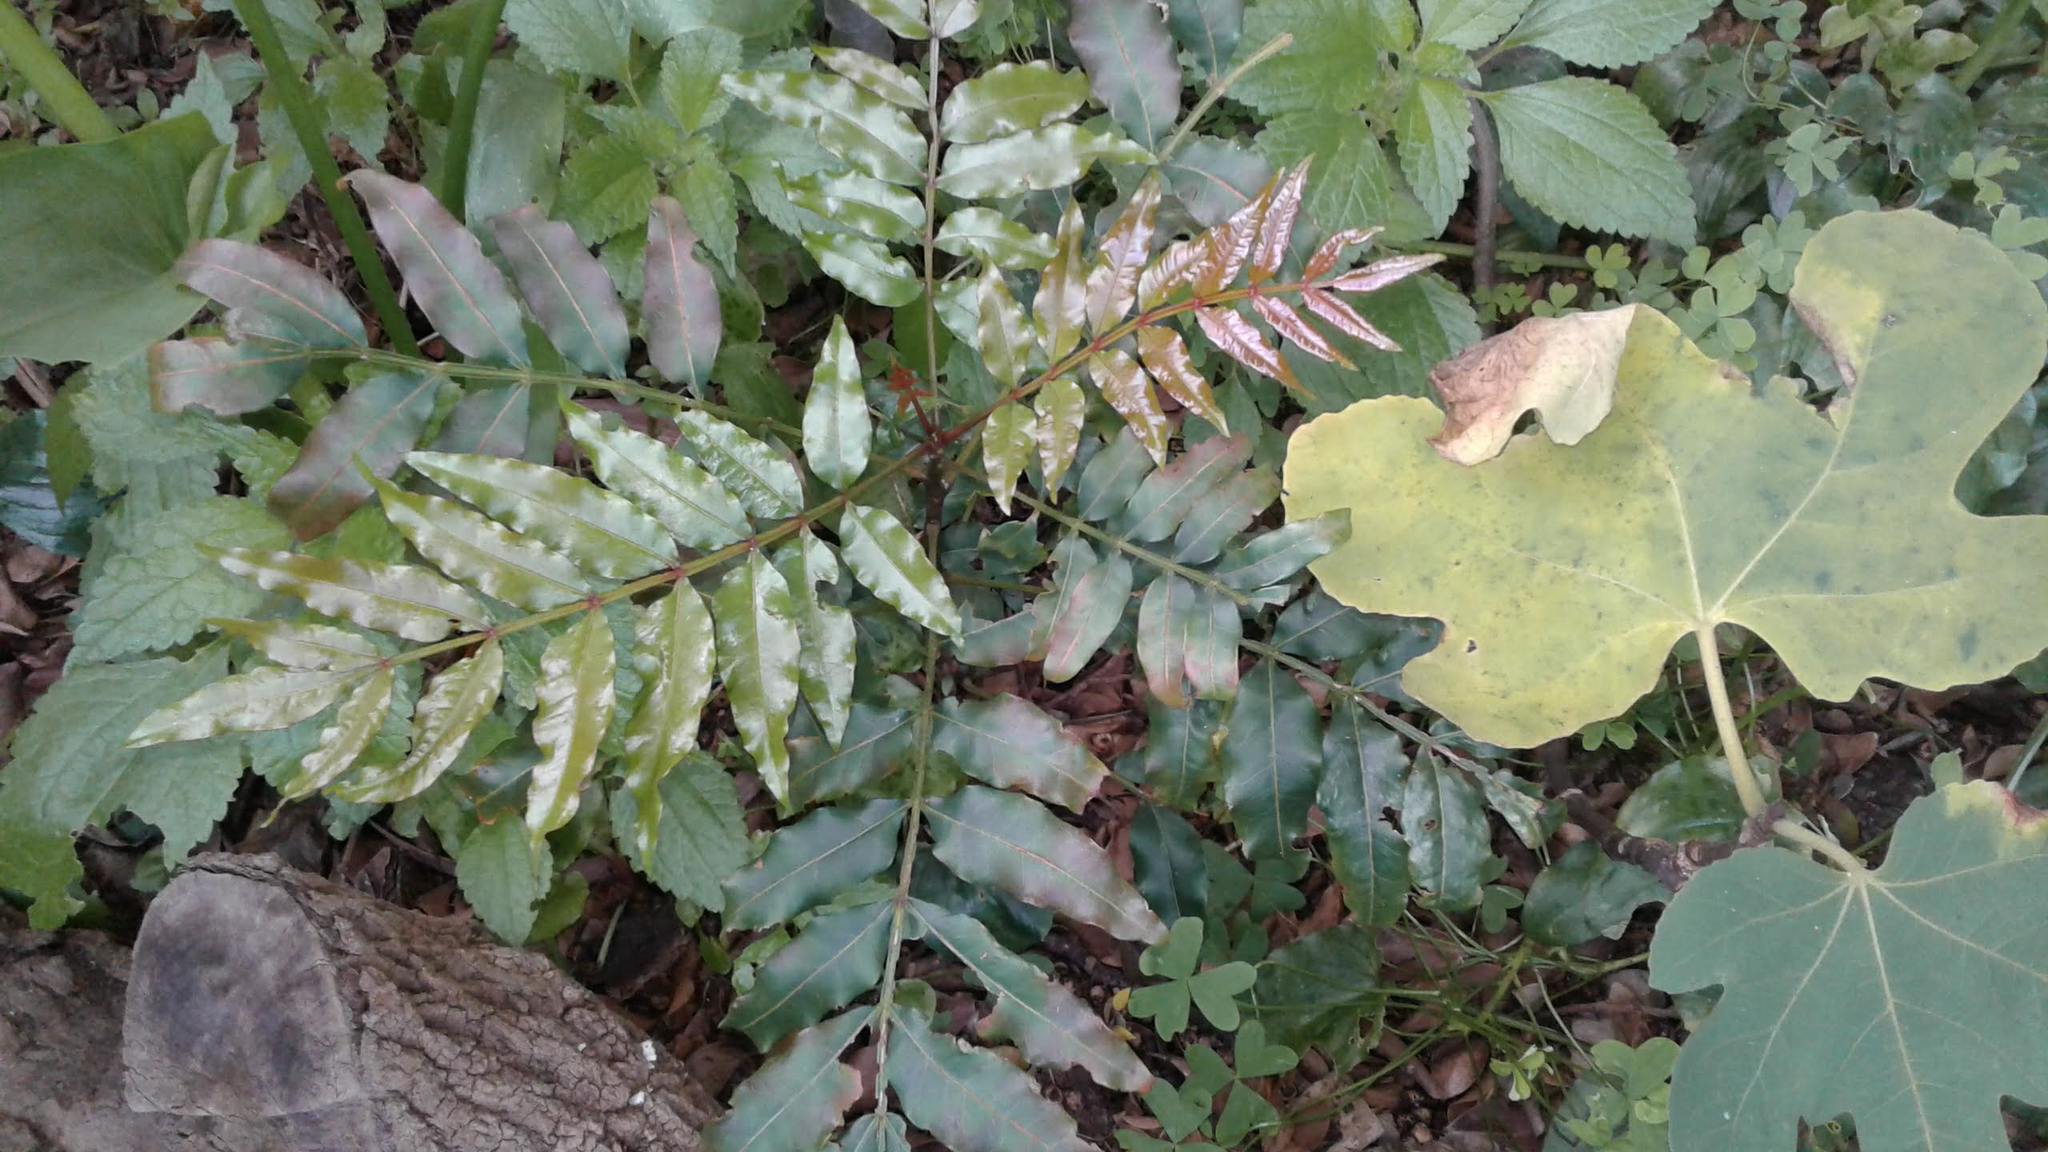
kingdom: Plantae
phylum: Tracheophyta
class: Magnoliopsida
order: Sapindales
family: Meliaceae
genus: Ekebergia
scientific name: Ekebergia capensis
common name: Cape-ash
